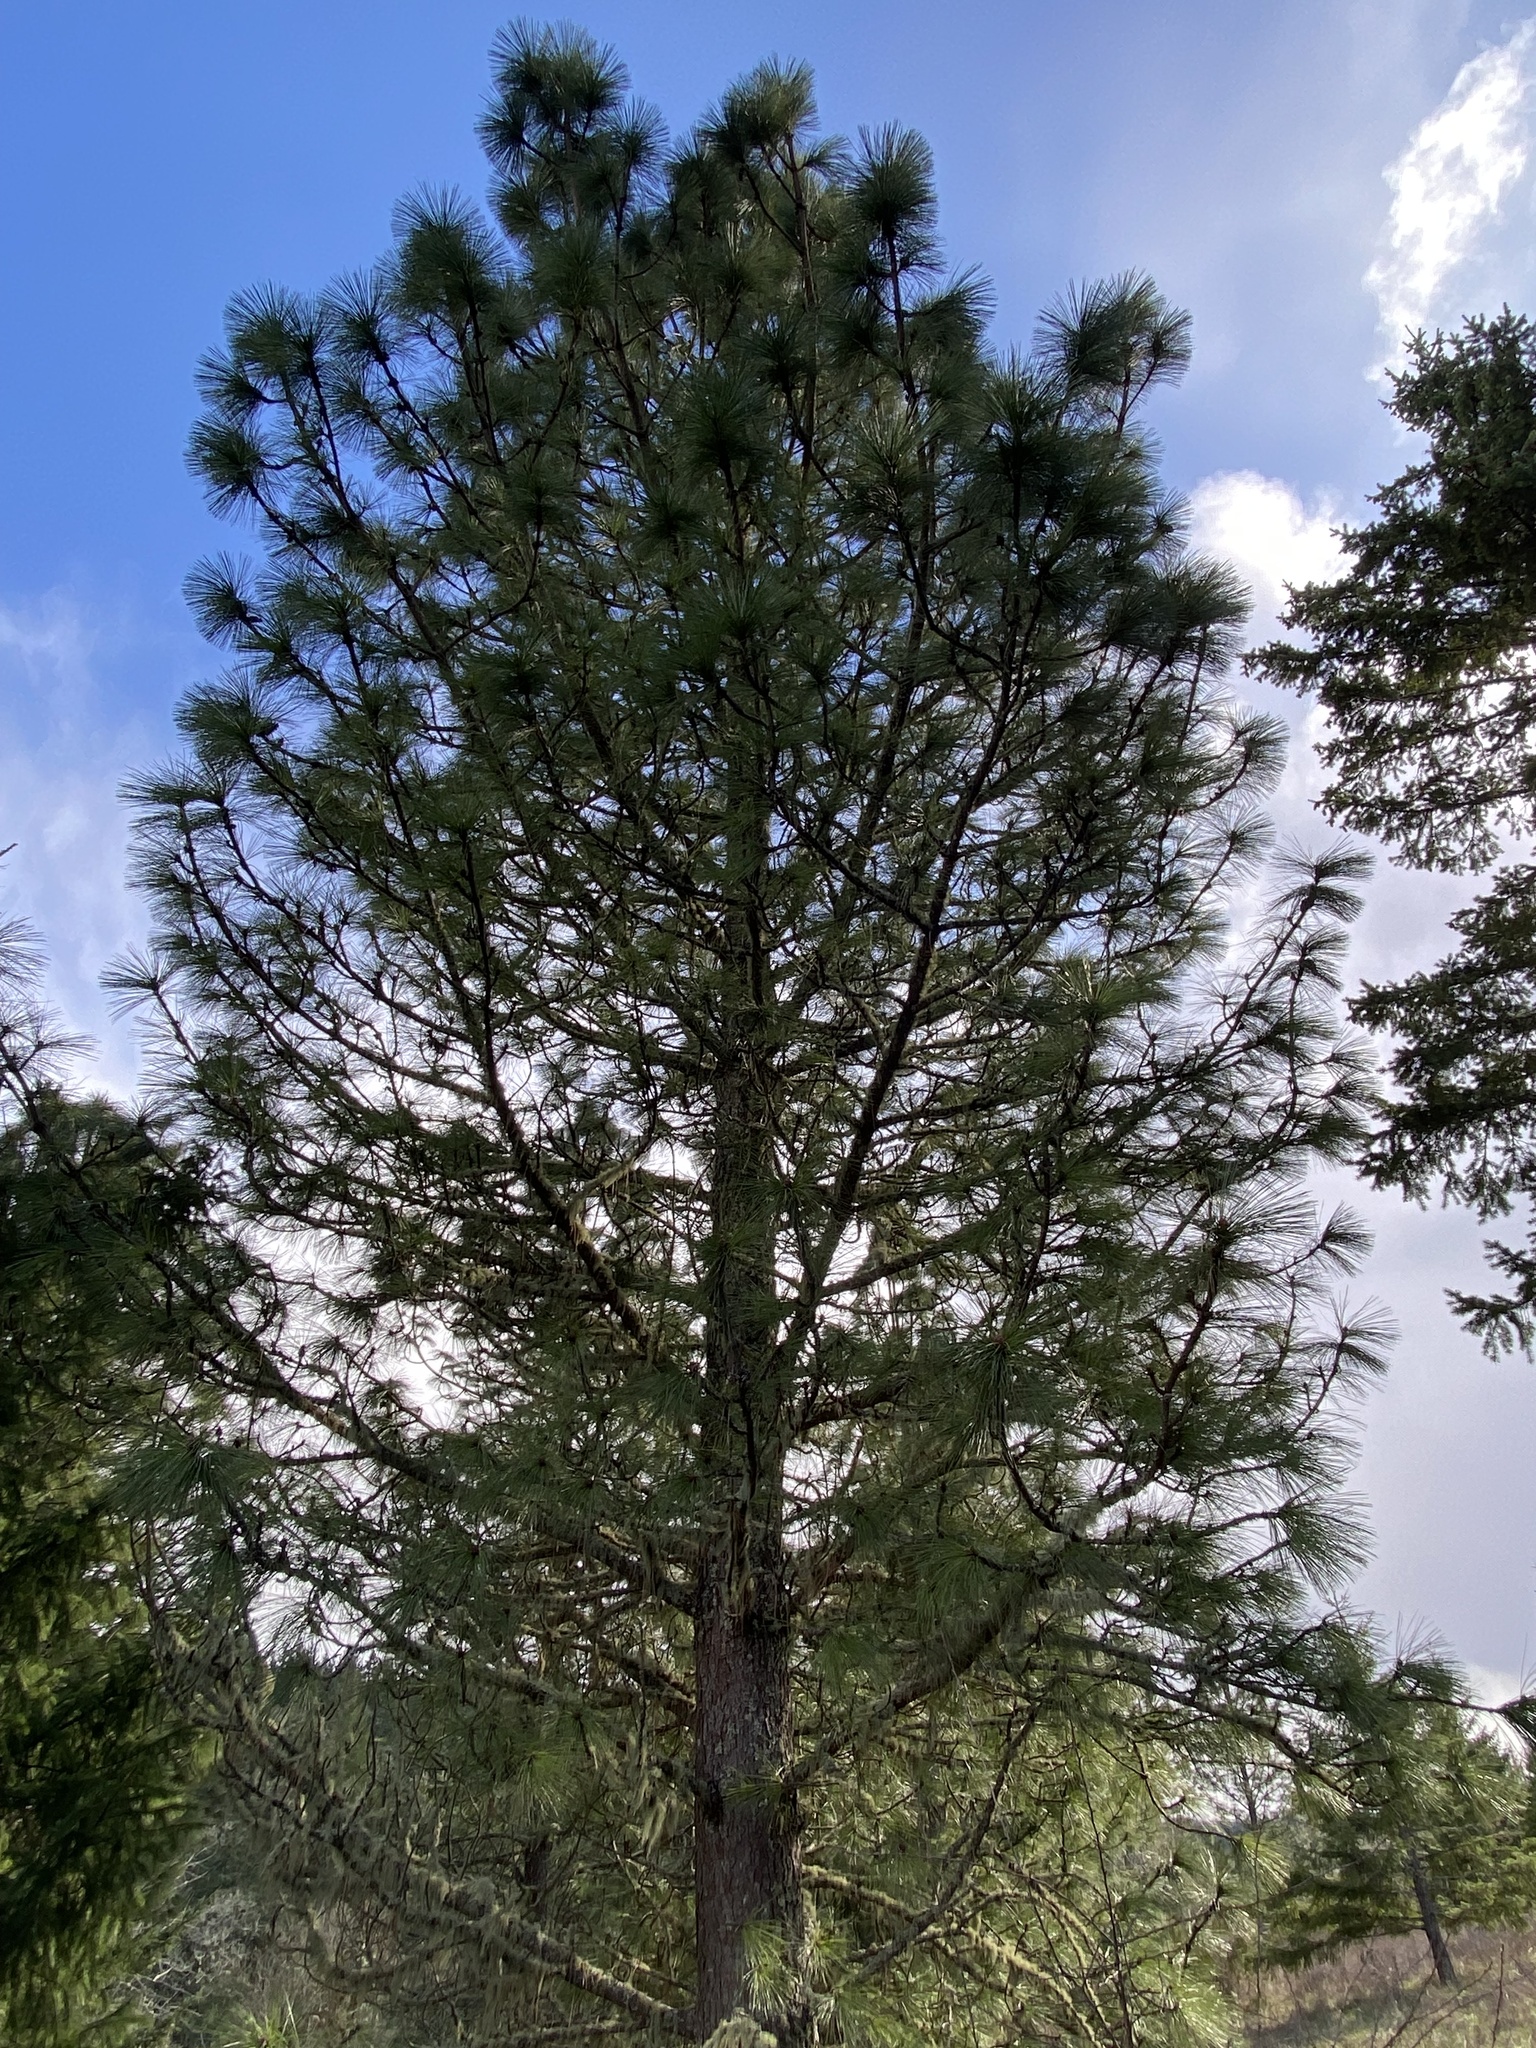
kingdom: Plantae
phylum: Tracheophyta
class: Pinopsida
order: Pinales
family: Pinaceae
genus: Pinus
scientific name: Pinus ponderosa
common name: Western yellow-pine
